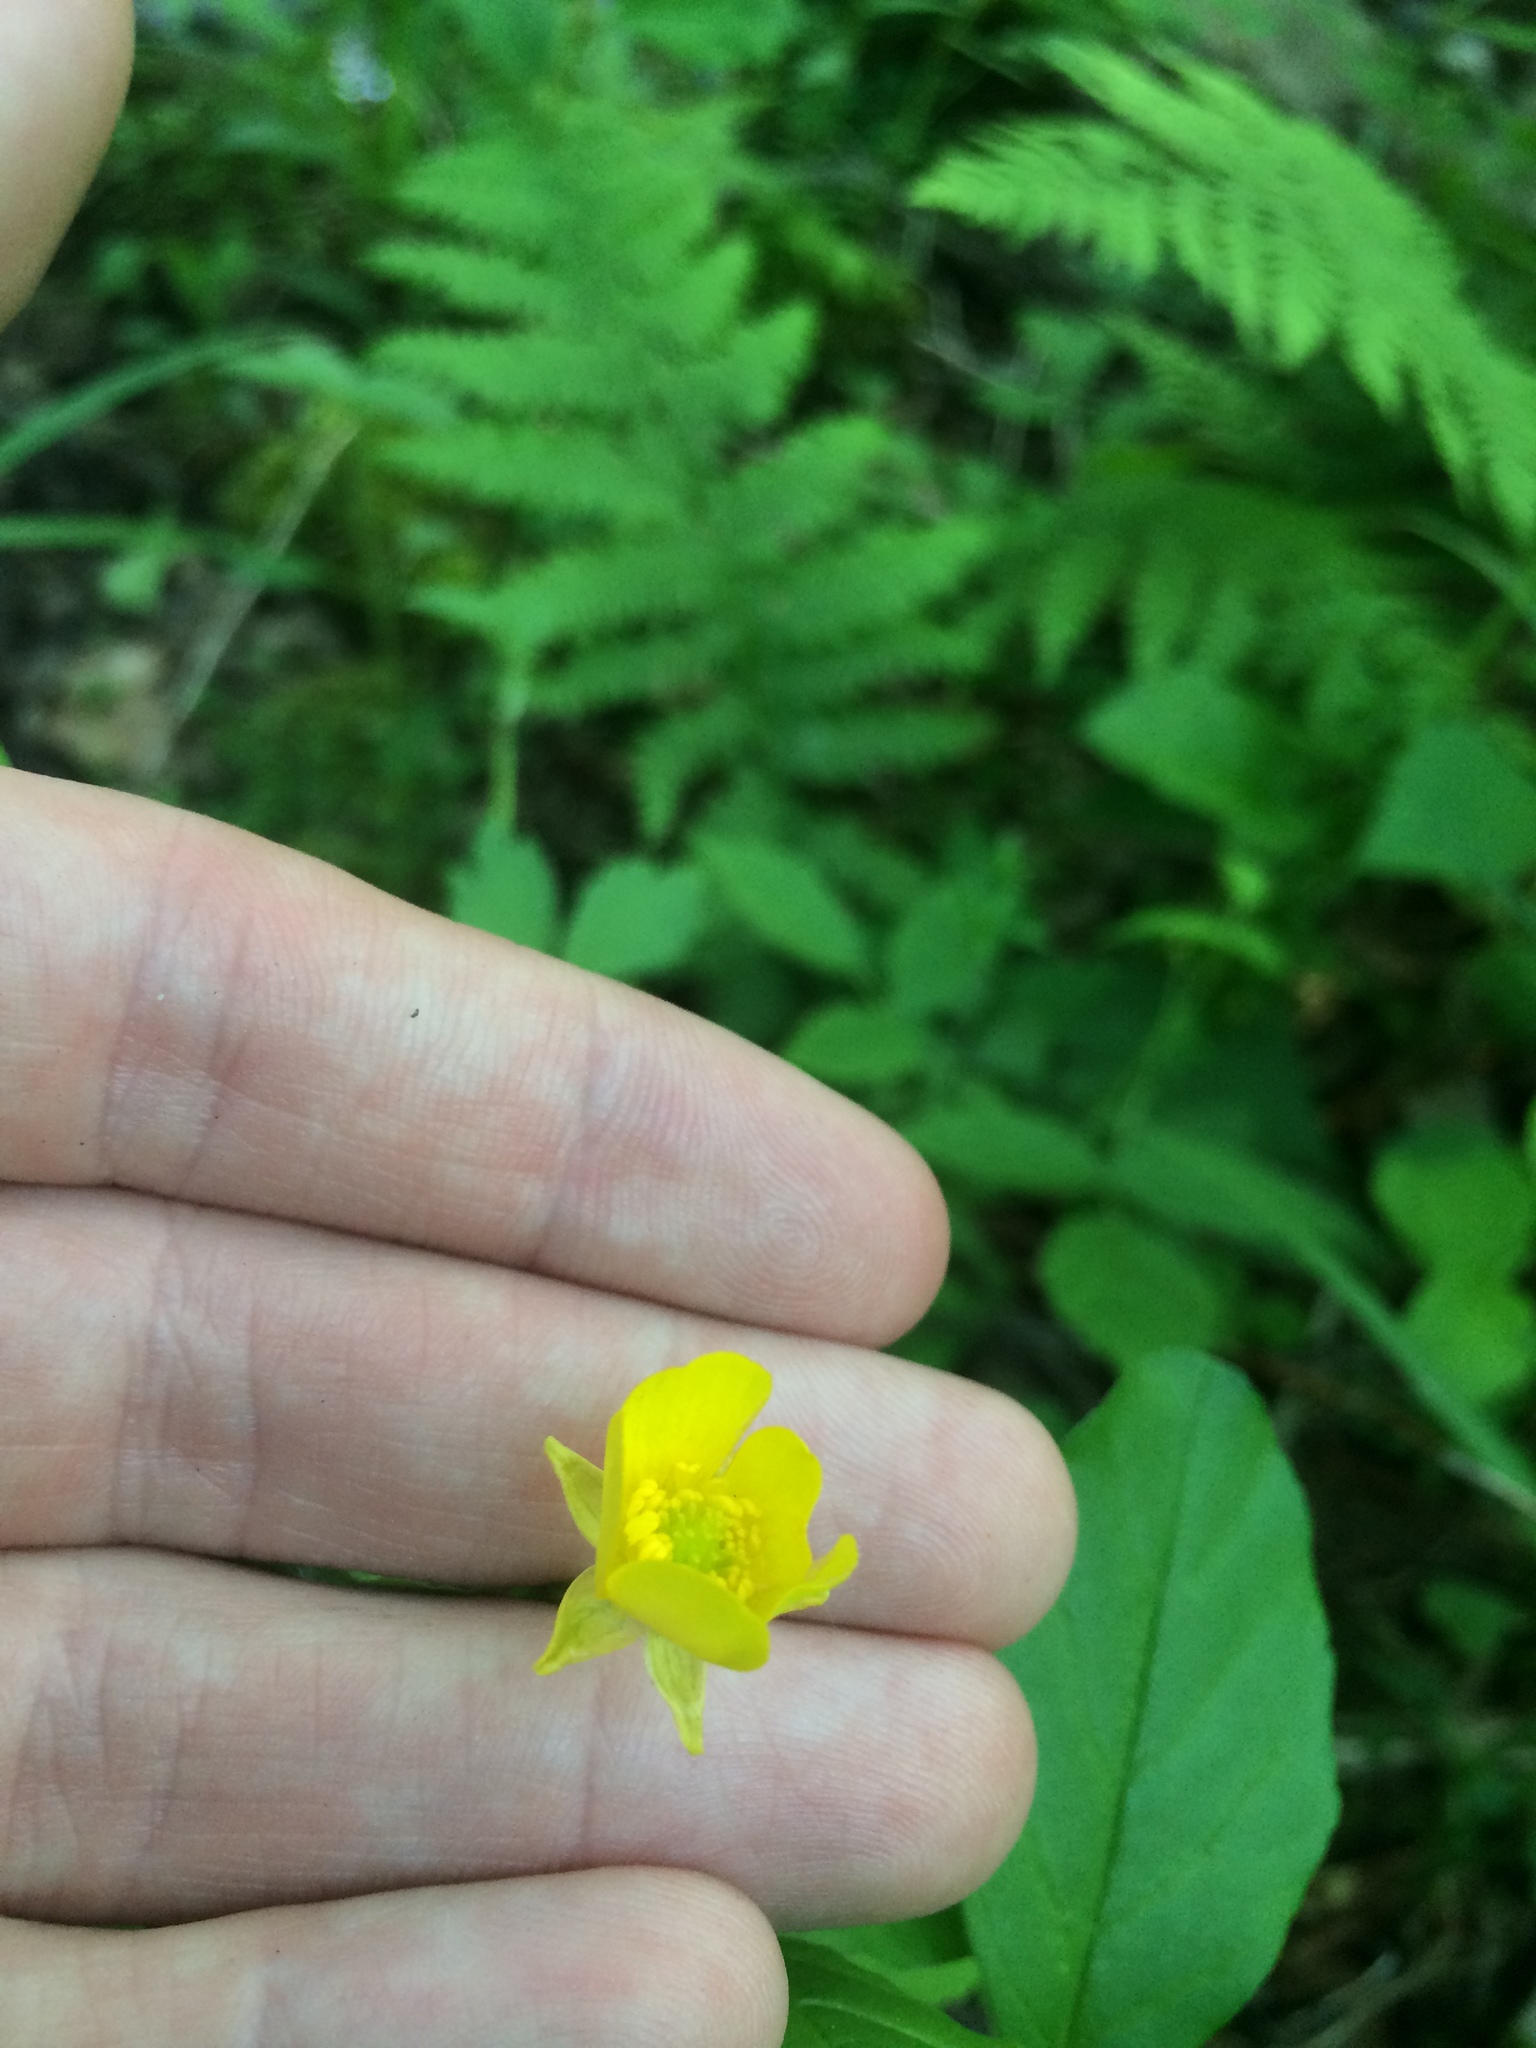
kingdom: Plantae
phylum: Tracheophyta
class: Magnoliopsida
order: Ranunculales
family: Ranunculaceae
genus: Ranunculus
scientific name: Ranunculus hispidus
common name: Bristly buttercup
